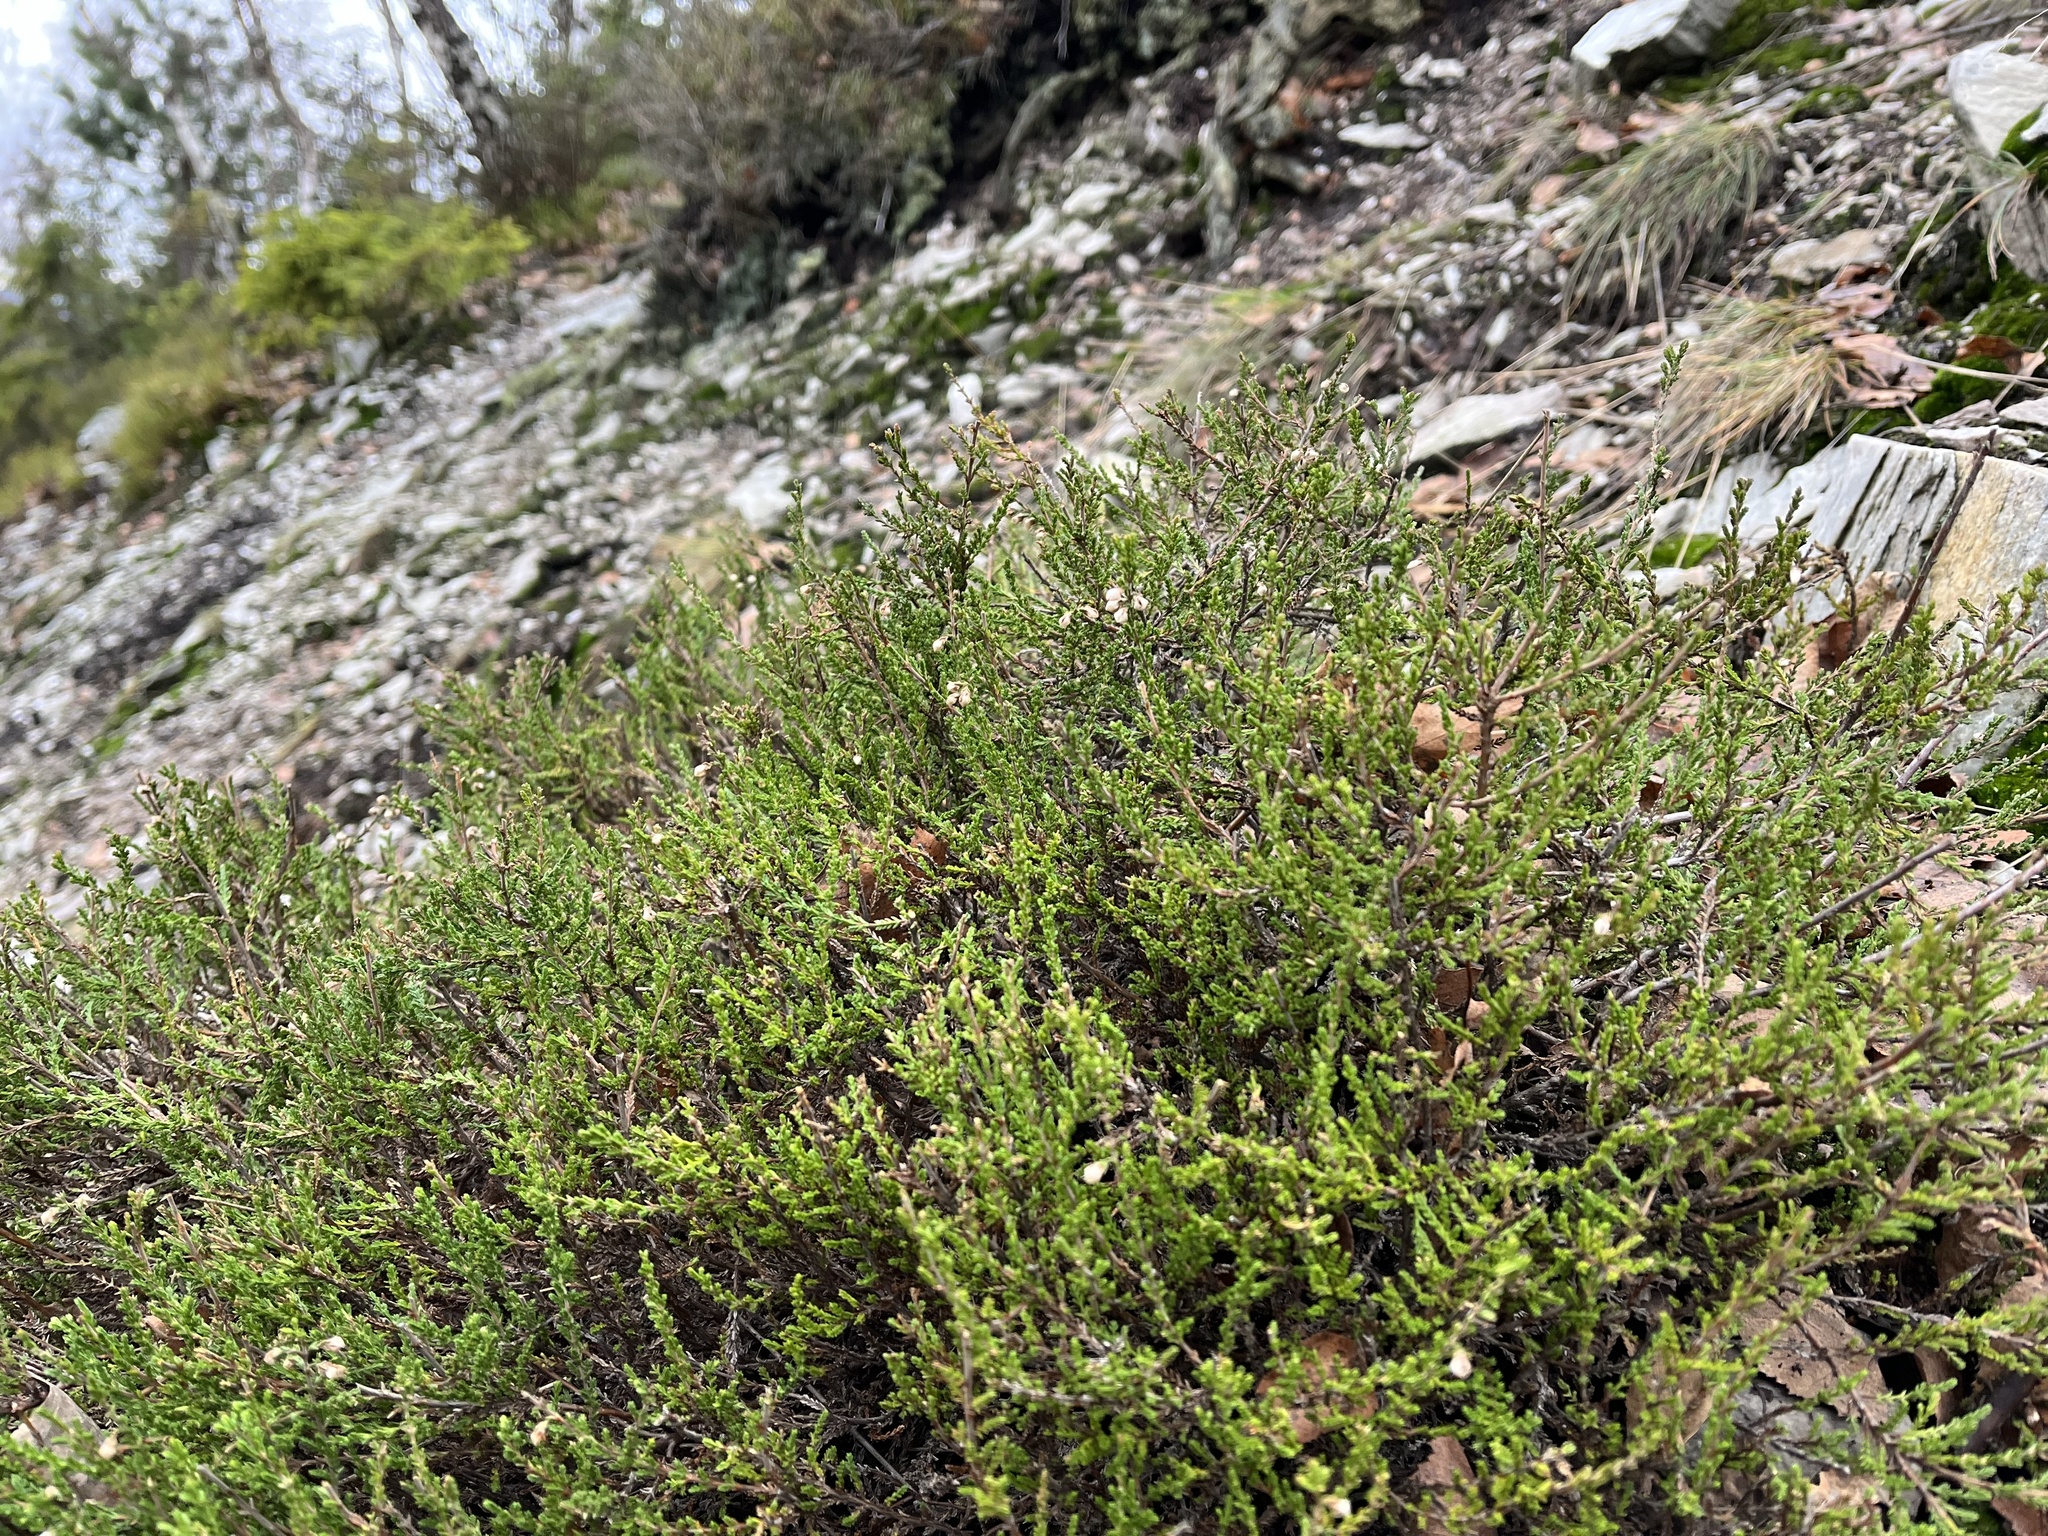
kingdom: Plantae
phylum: Tracheophyta
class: Magnoliopsida
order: Ericales
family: Ericaceae
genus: Calluna
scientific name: Calluna vulgaris
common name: Heather
